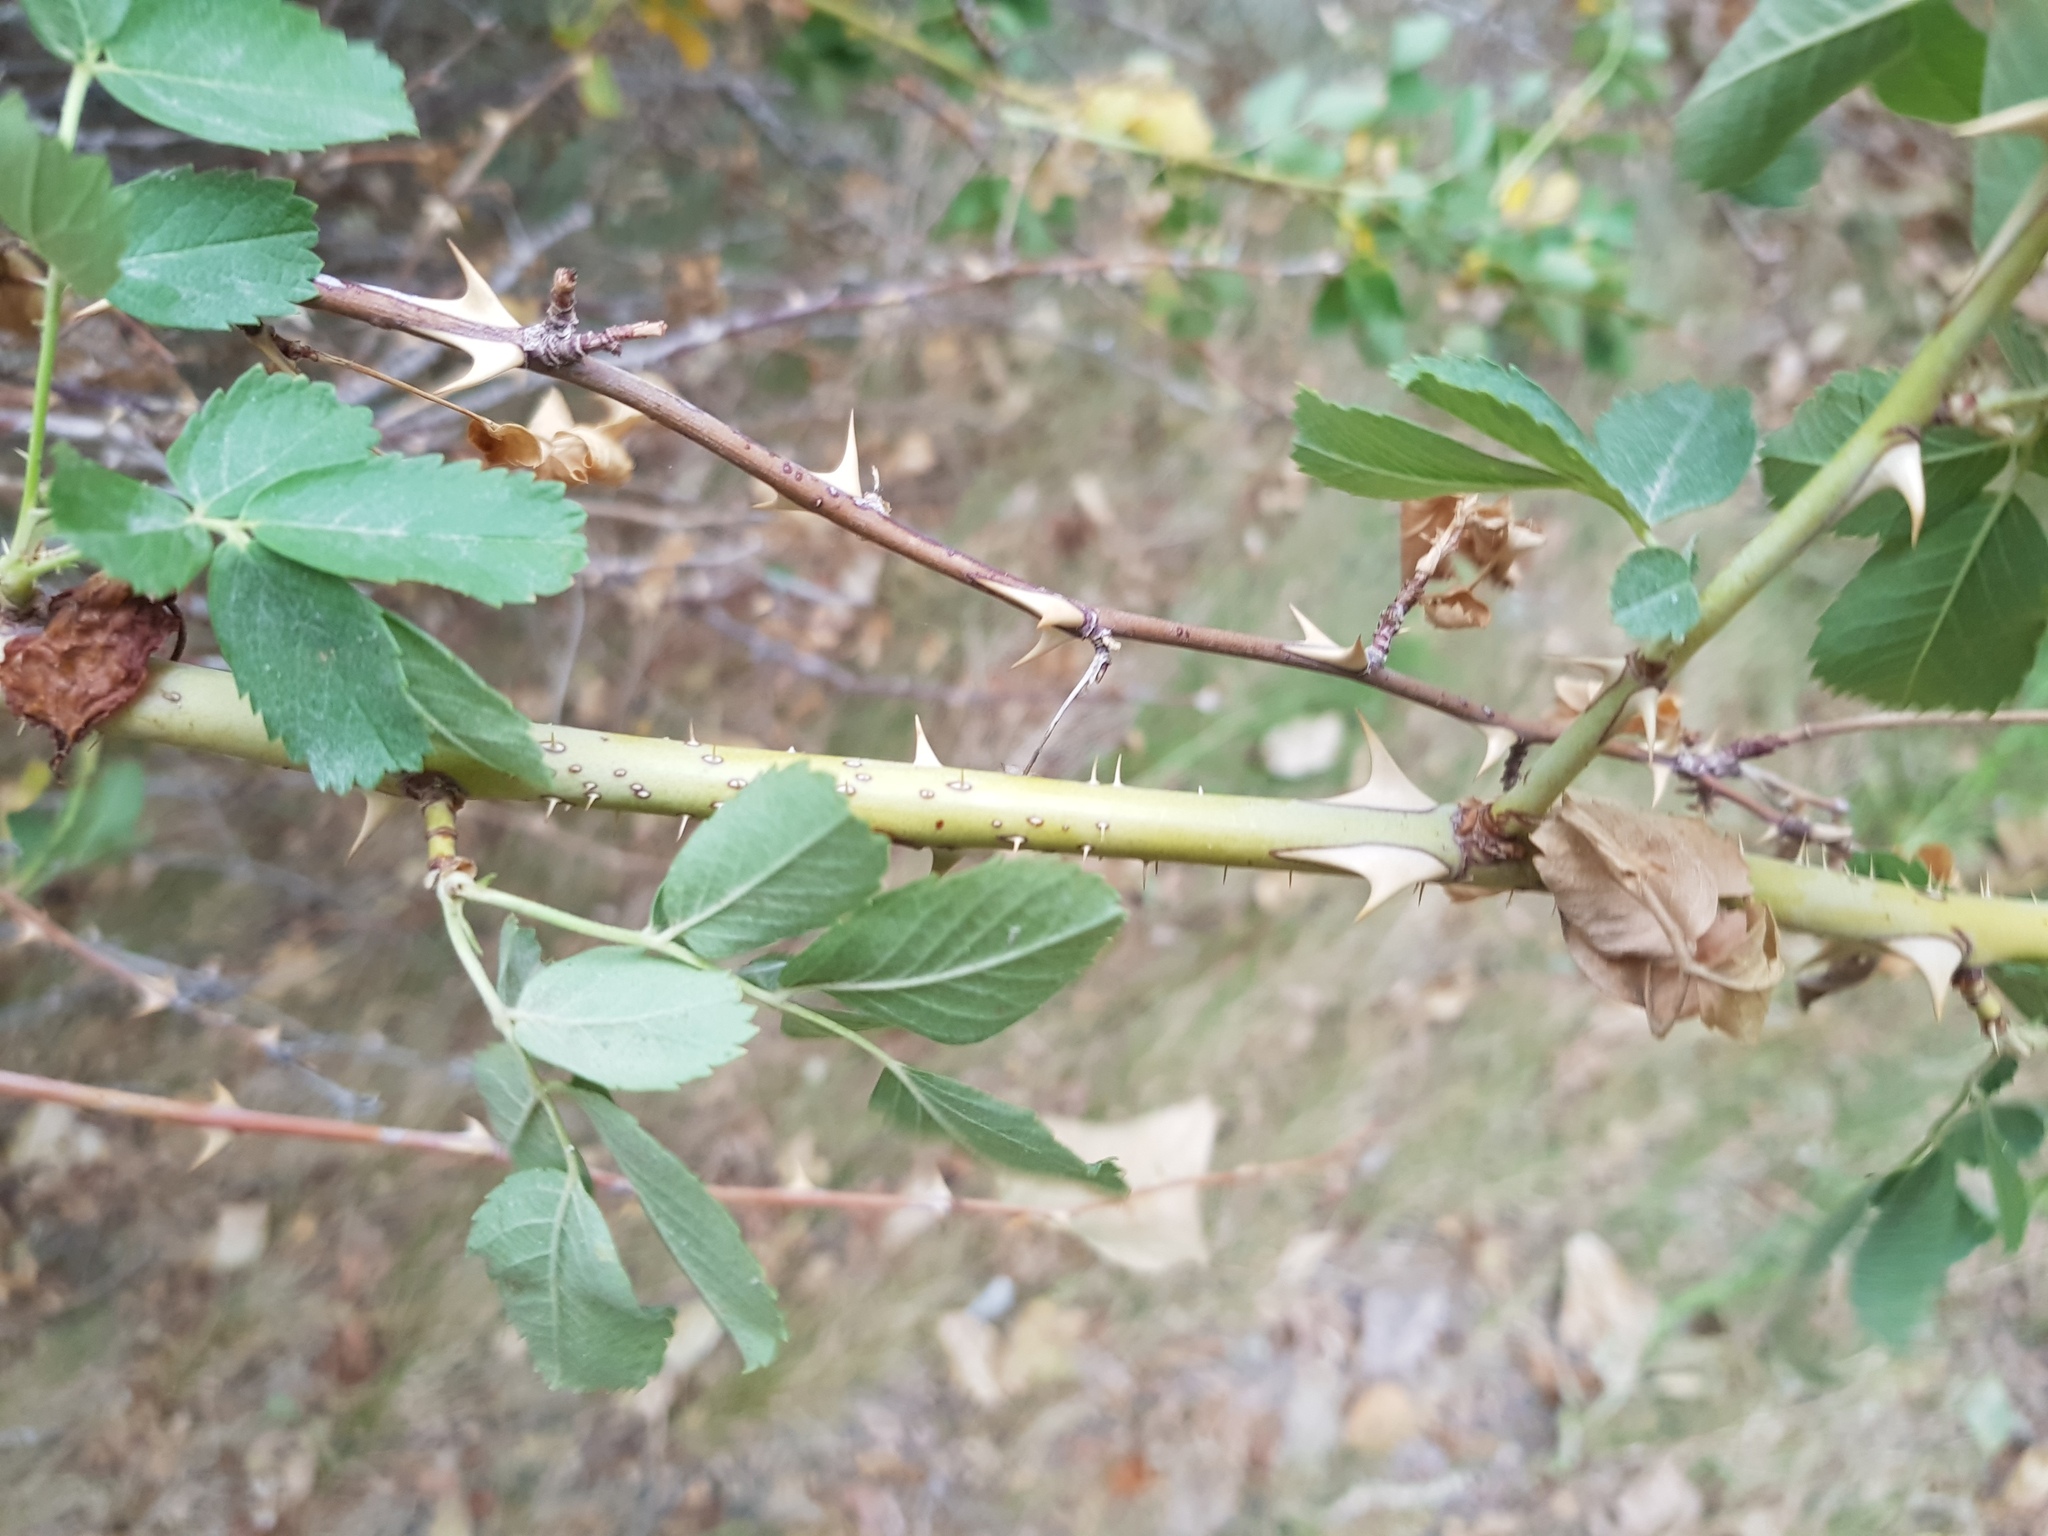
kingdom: Plantae
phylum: Tracheophyta
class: Magnoliopsida
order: Rosales
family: Rosaceae
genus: Rosa
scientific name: Rosa laxa
